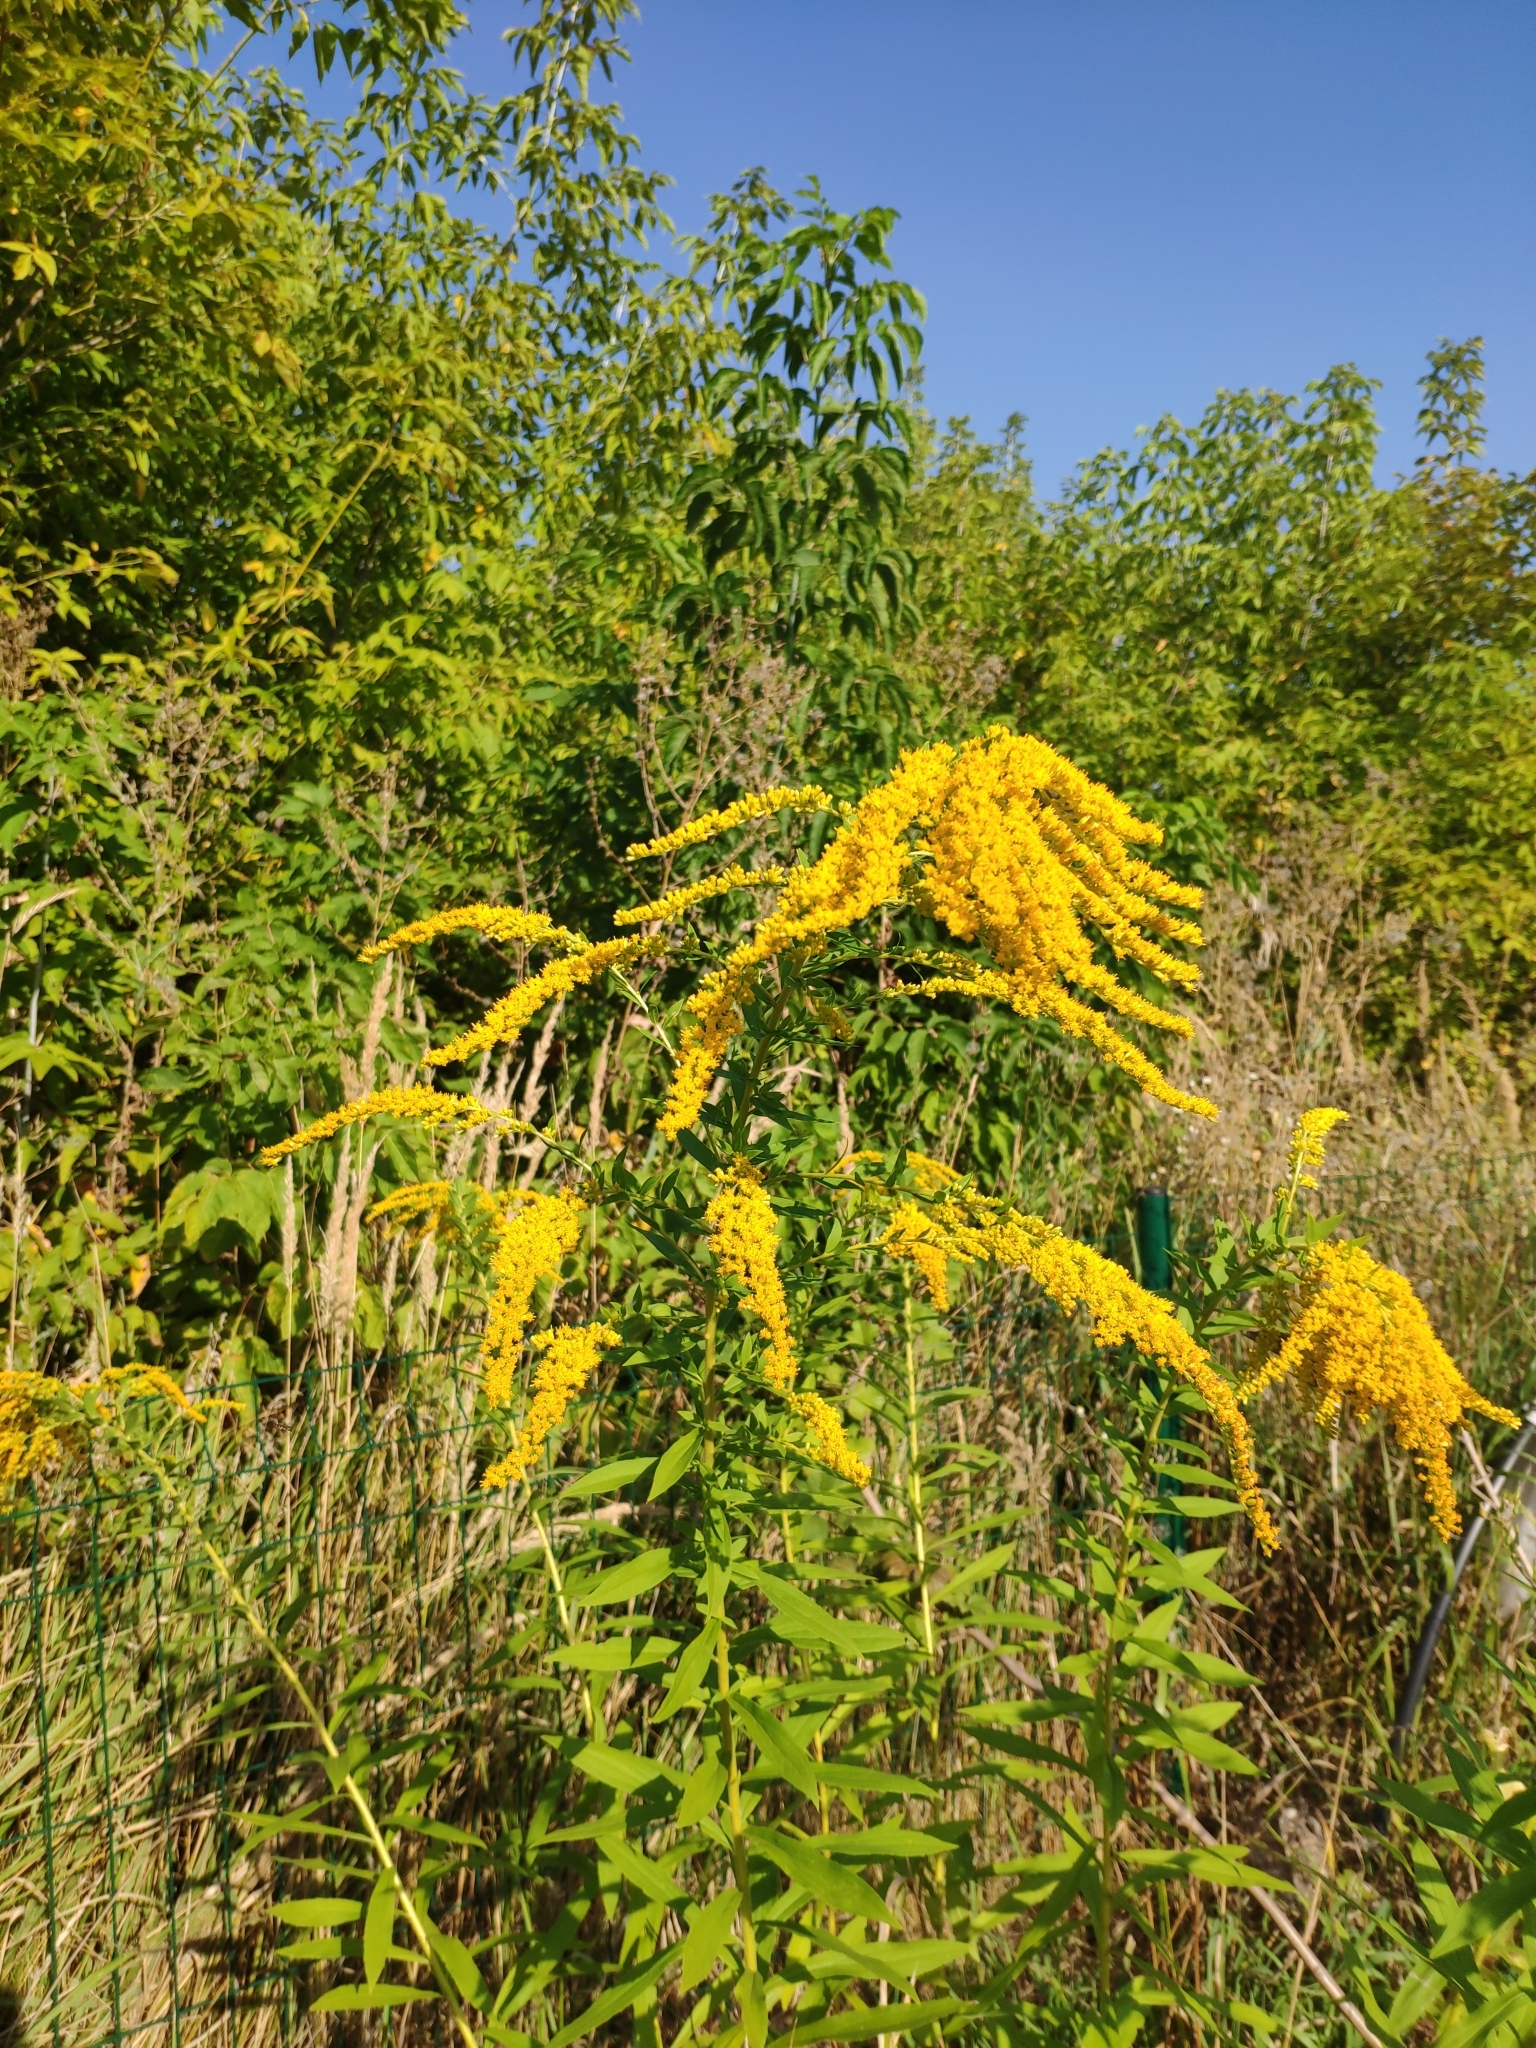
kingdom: Plantae
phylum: Tracheophyta
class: Magnoliopsida
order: Asterales
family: Asteraceae
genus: Solidago
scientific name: Solidago canadensis
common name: Canada goldenrod
